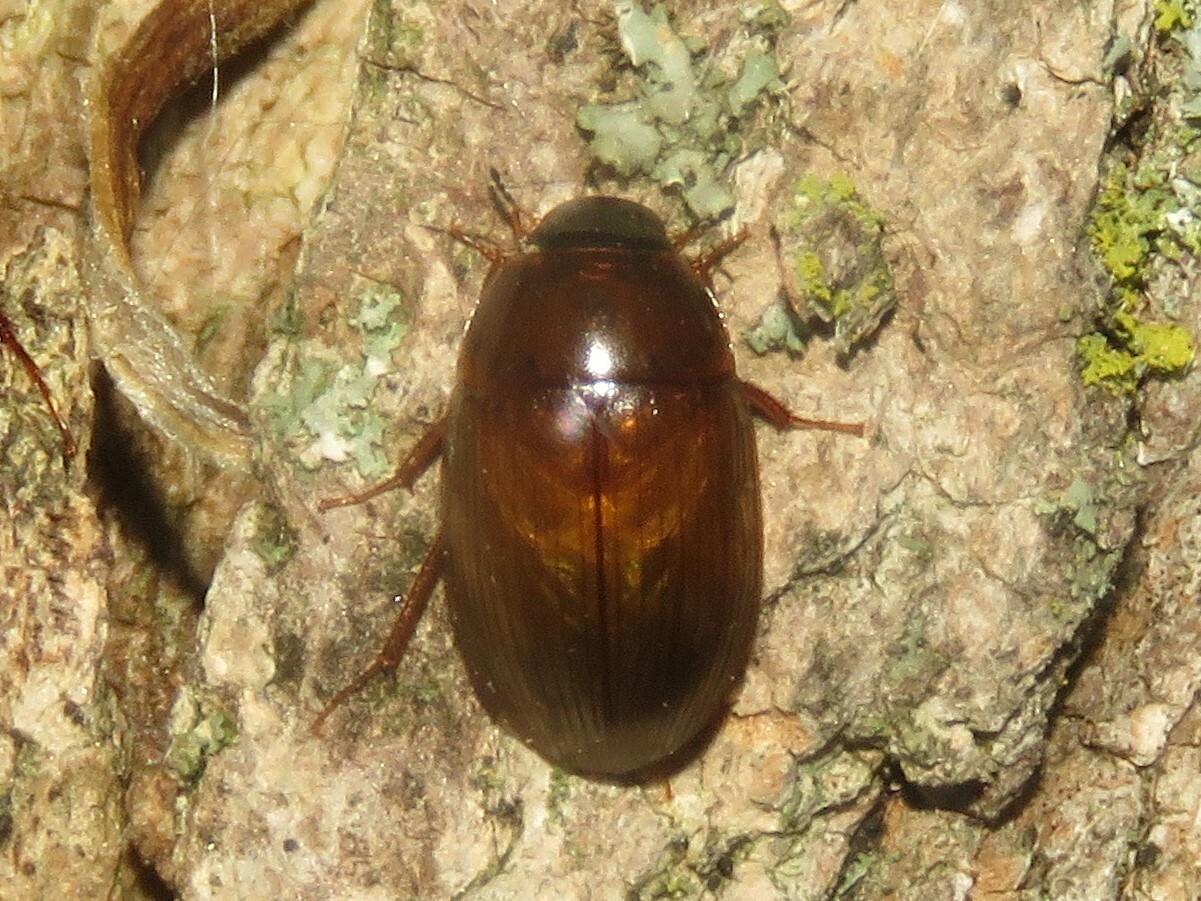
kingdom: Animalia
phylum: Arthropoda
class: Insecta
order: Coleoptera
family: Hydrophilidae
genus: Cymbiodyta
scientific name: Cymbiodyta bifida
